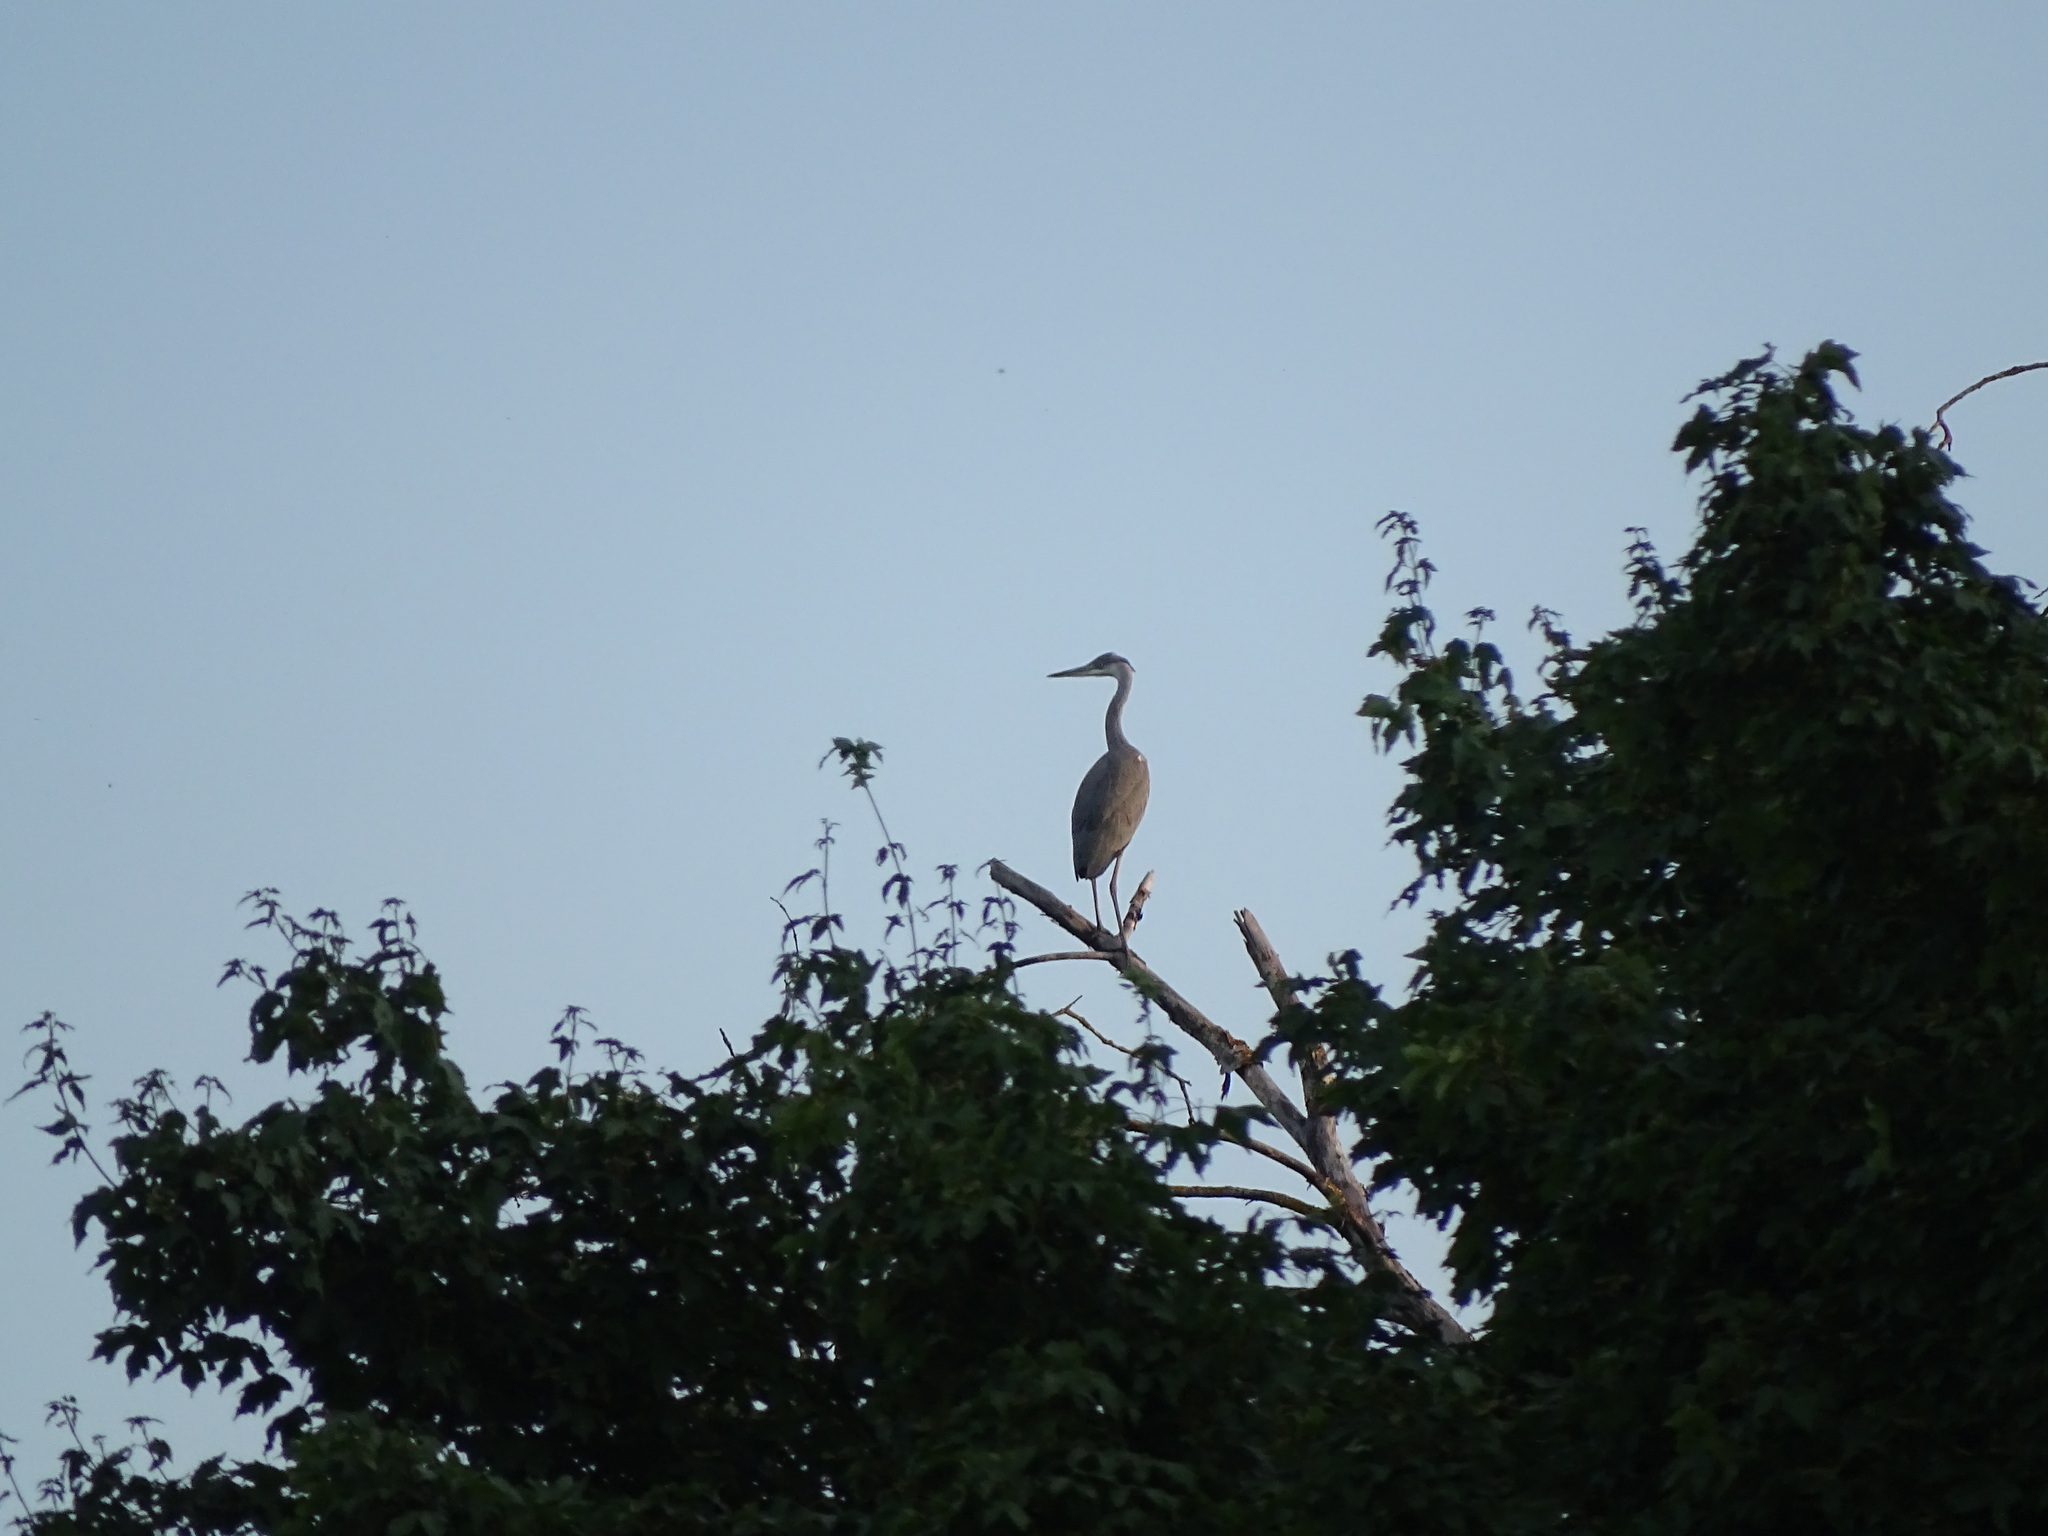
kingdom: Animalia
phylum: Chordata
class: Aves
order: Pelecaniformes
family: Ardeidae
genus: Ardea
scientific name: Ardea cinerea
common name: Grey heron
